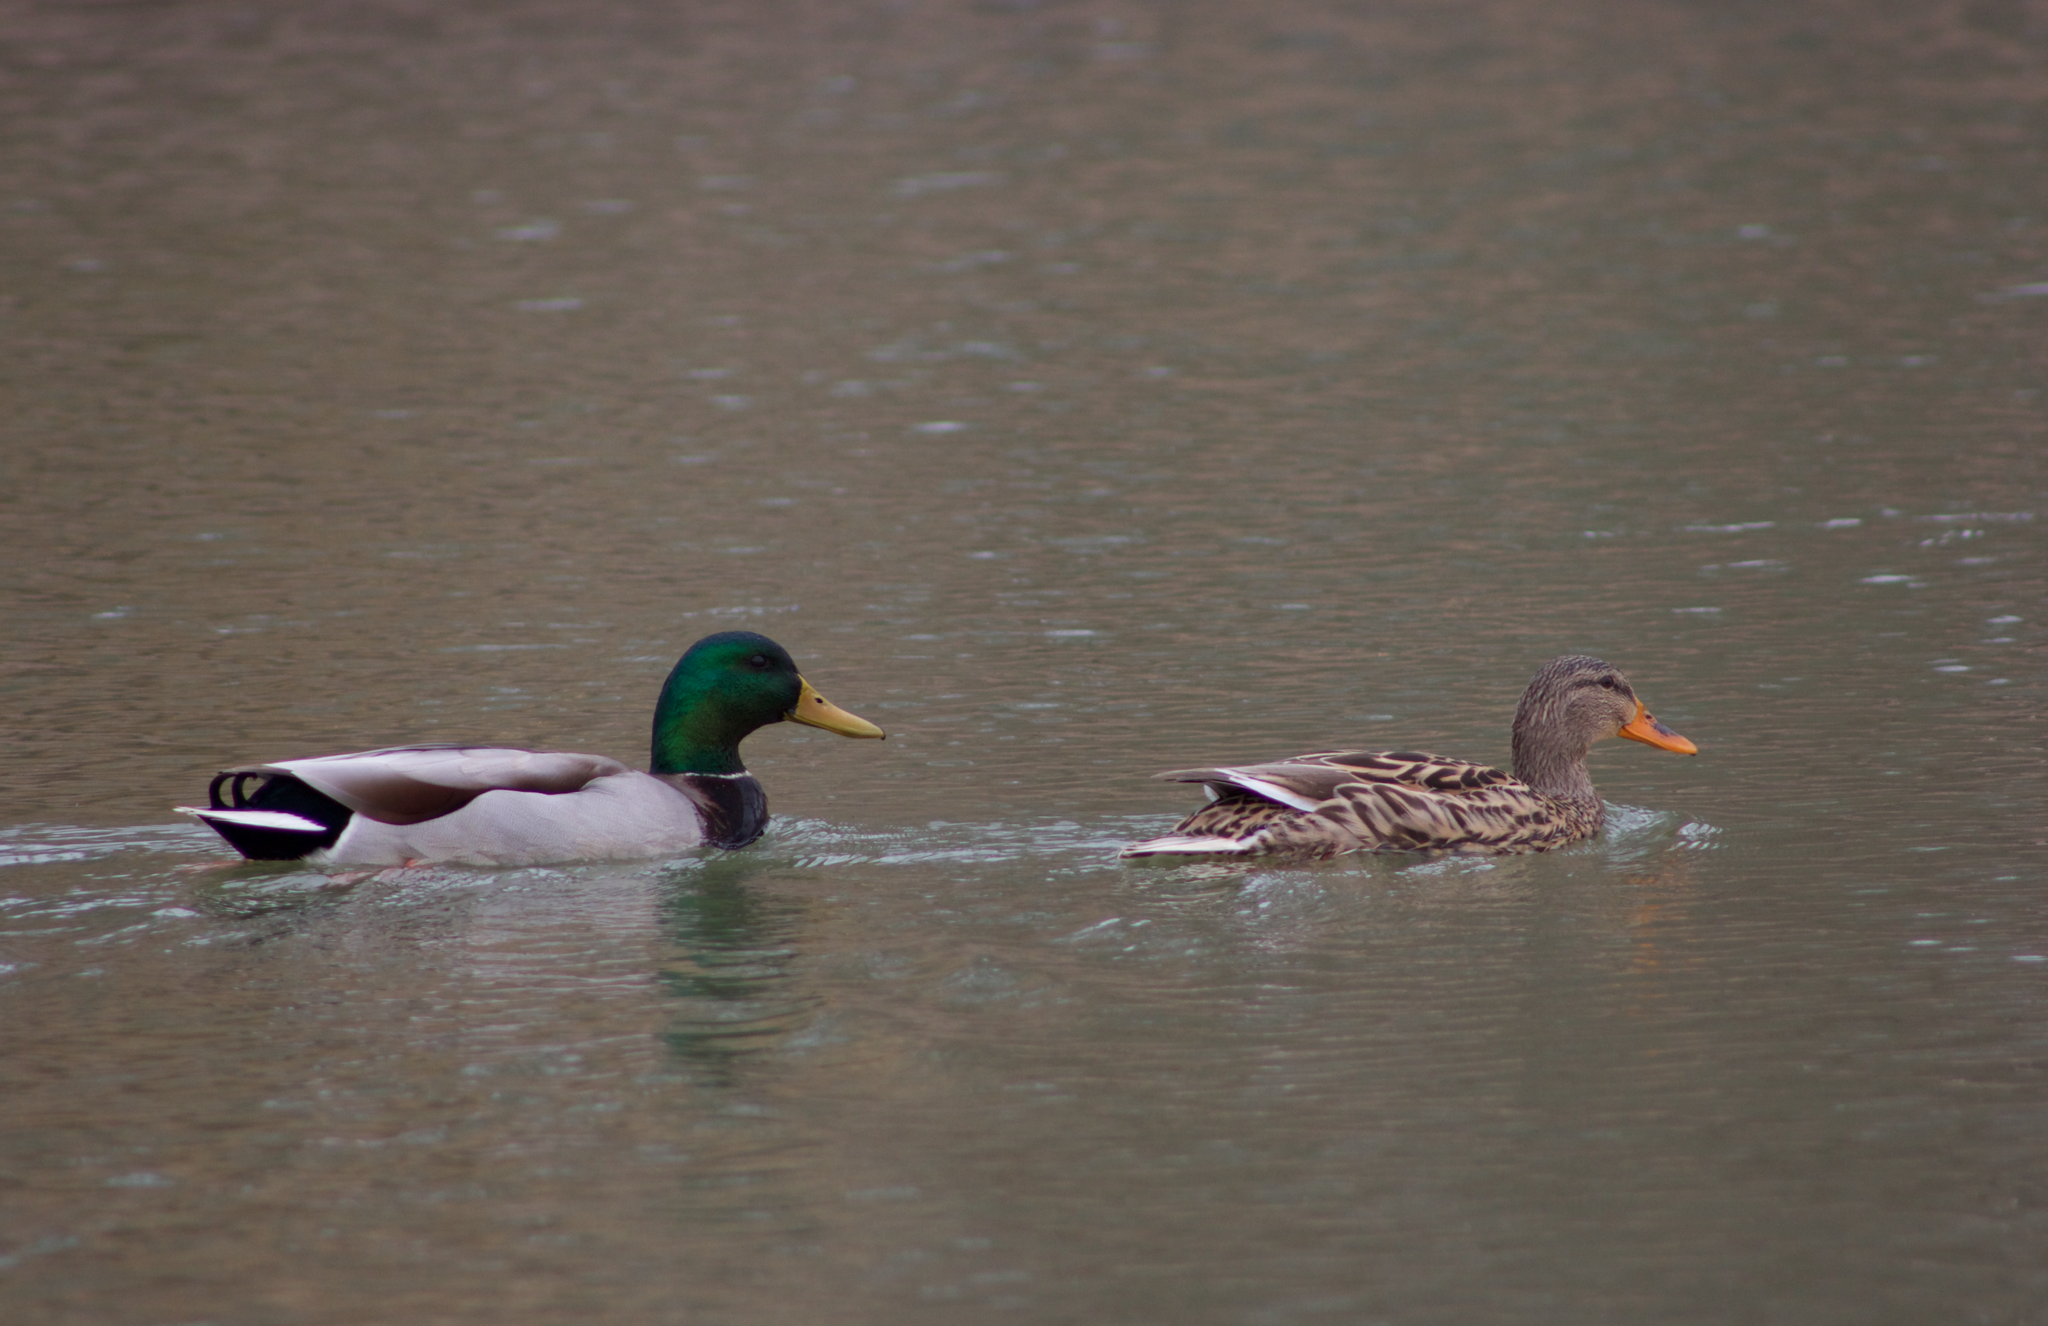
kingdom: Animalia
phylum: Chordata
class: Aves
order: Anseriformes
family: Anatidae
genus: Anas
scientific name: Anas platyrhynchos
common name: Mallard
